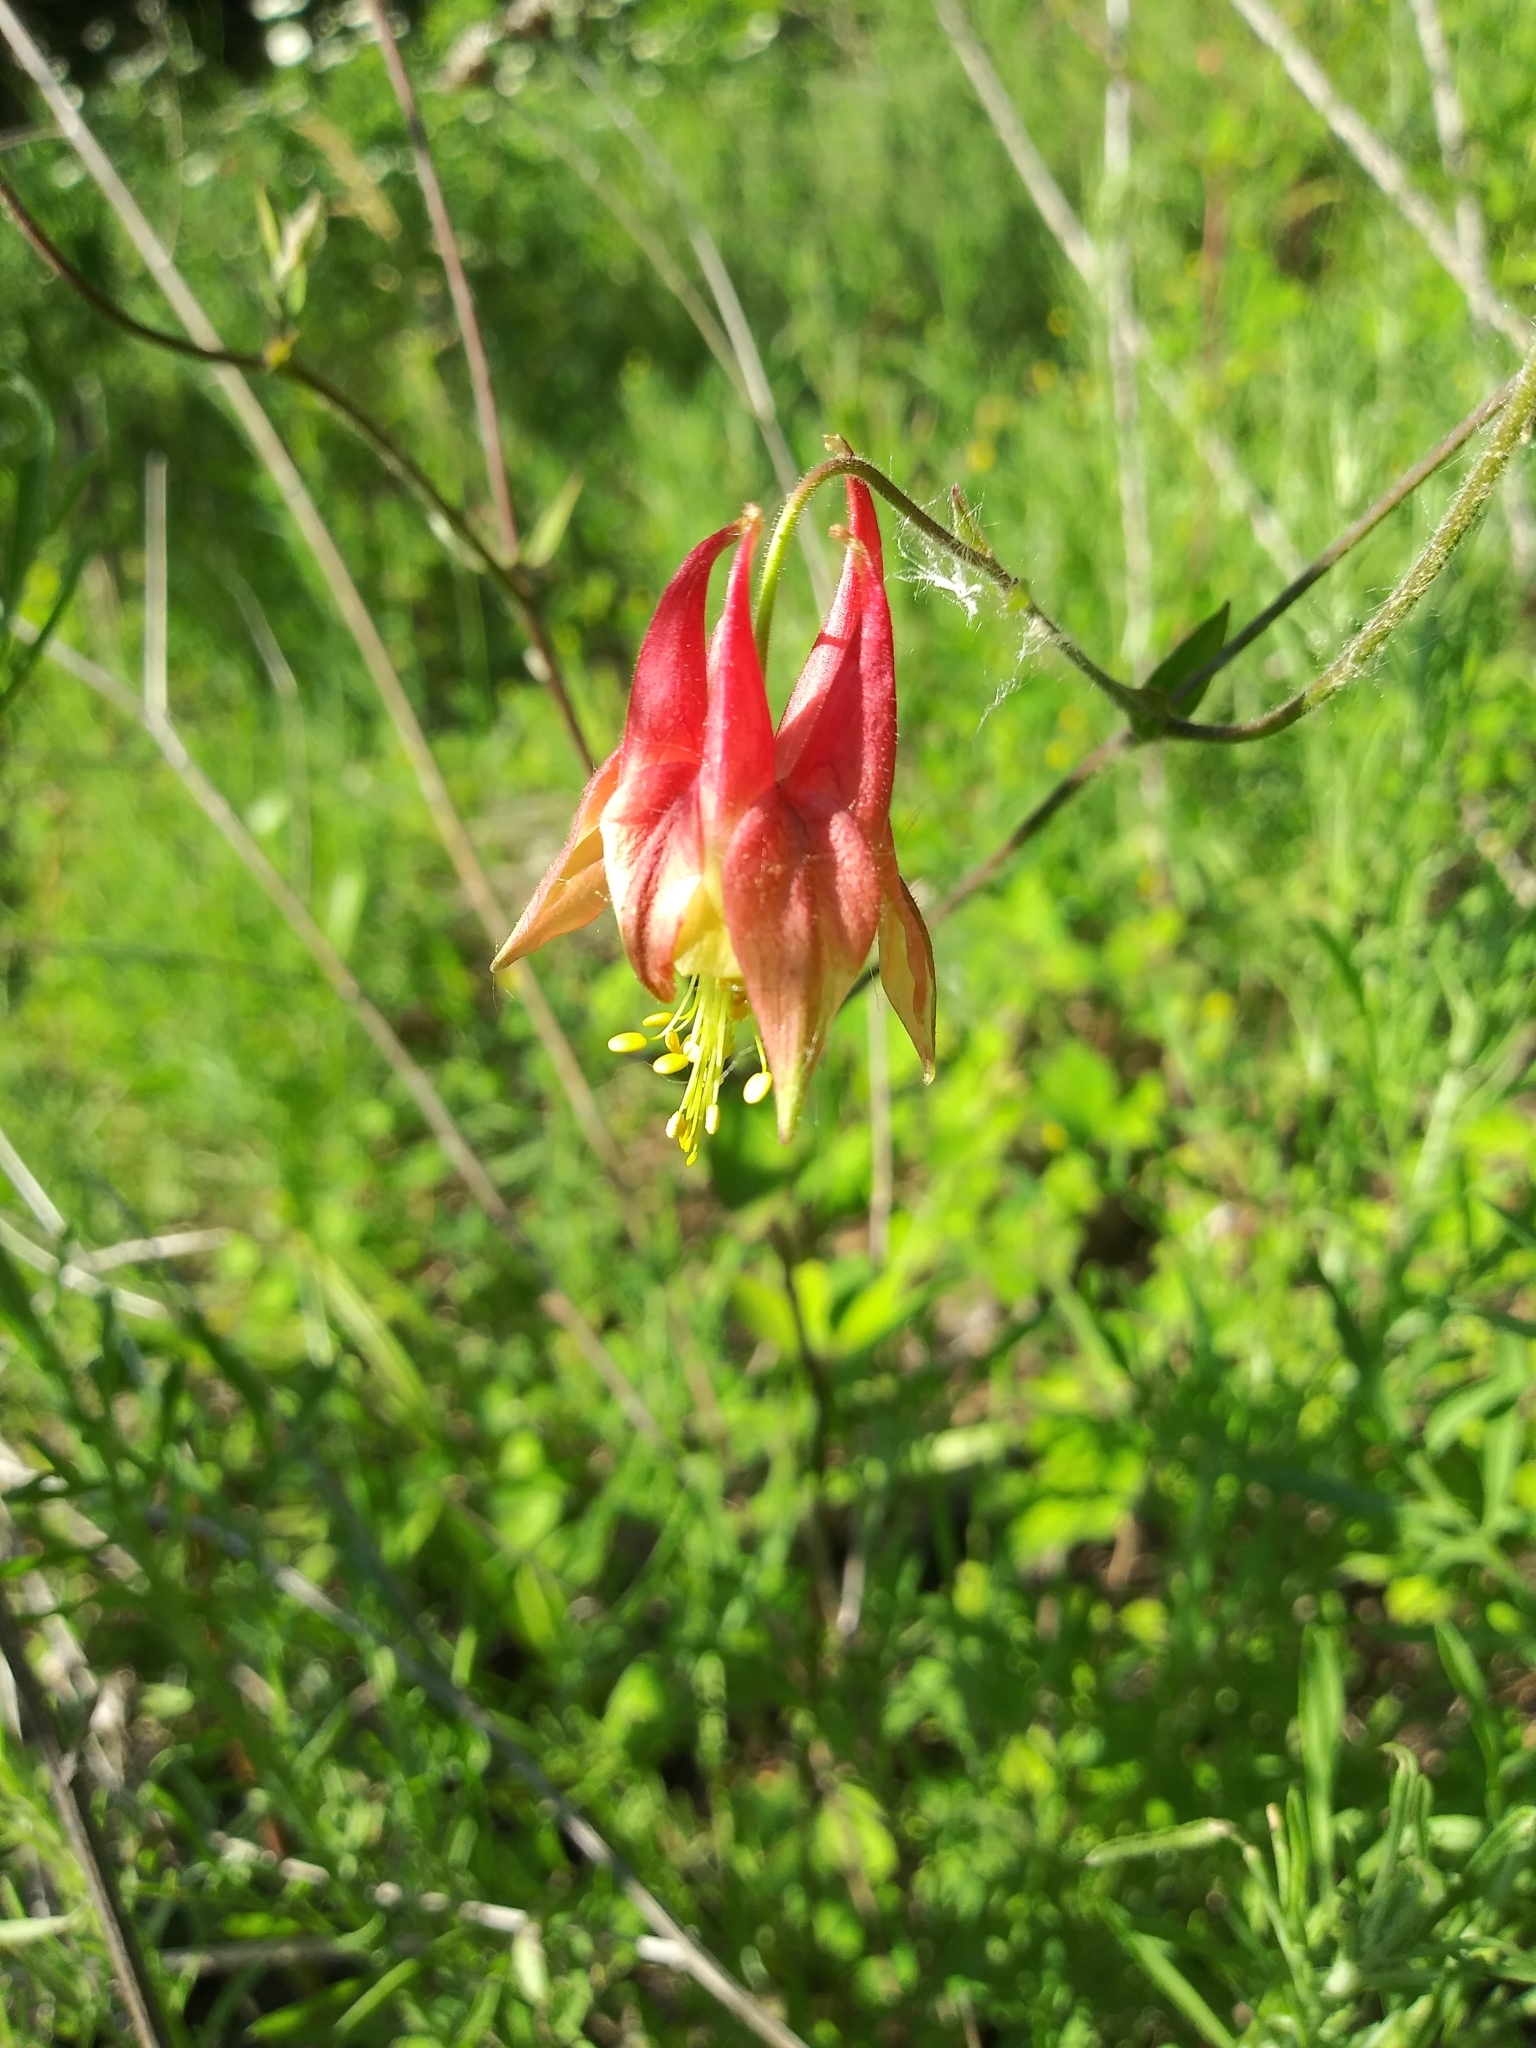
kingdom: Plantae
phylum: Tracheophyta
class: Magnoliopsida
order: Ranunculales
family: Ranunculaceae
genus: Aquilegia
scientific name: Aquilegia canadensis
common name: American columbine
